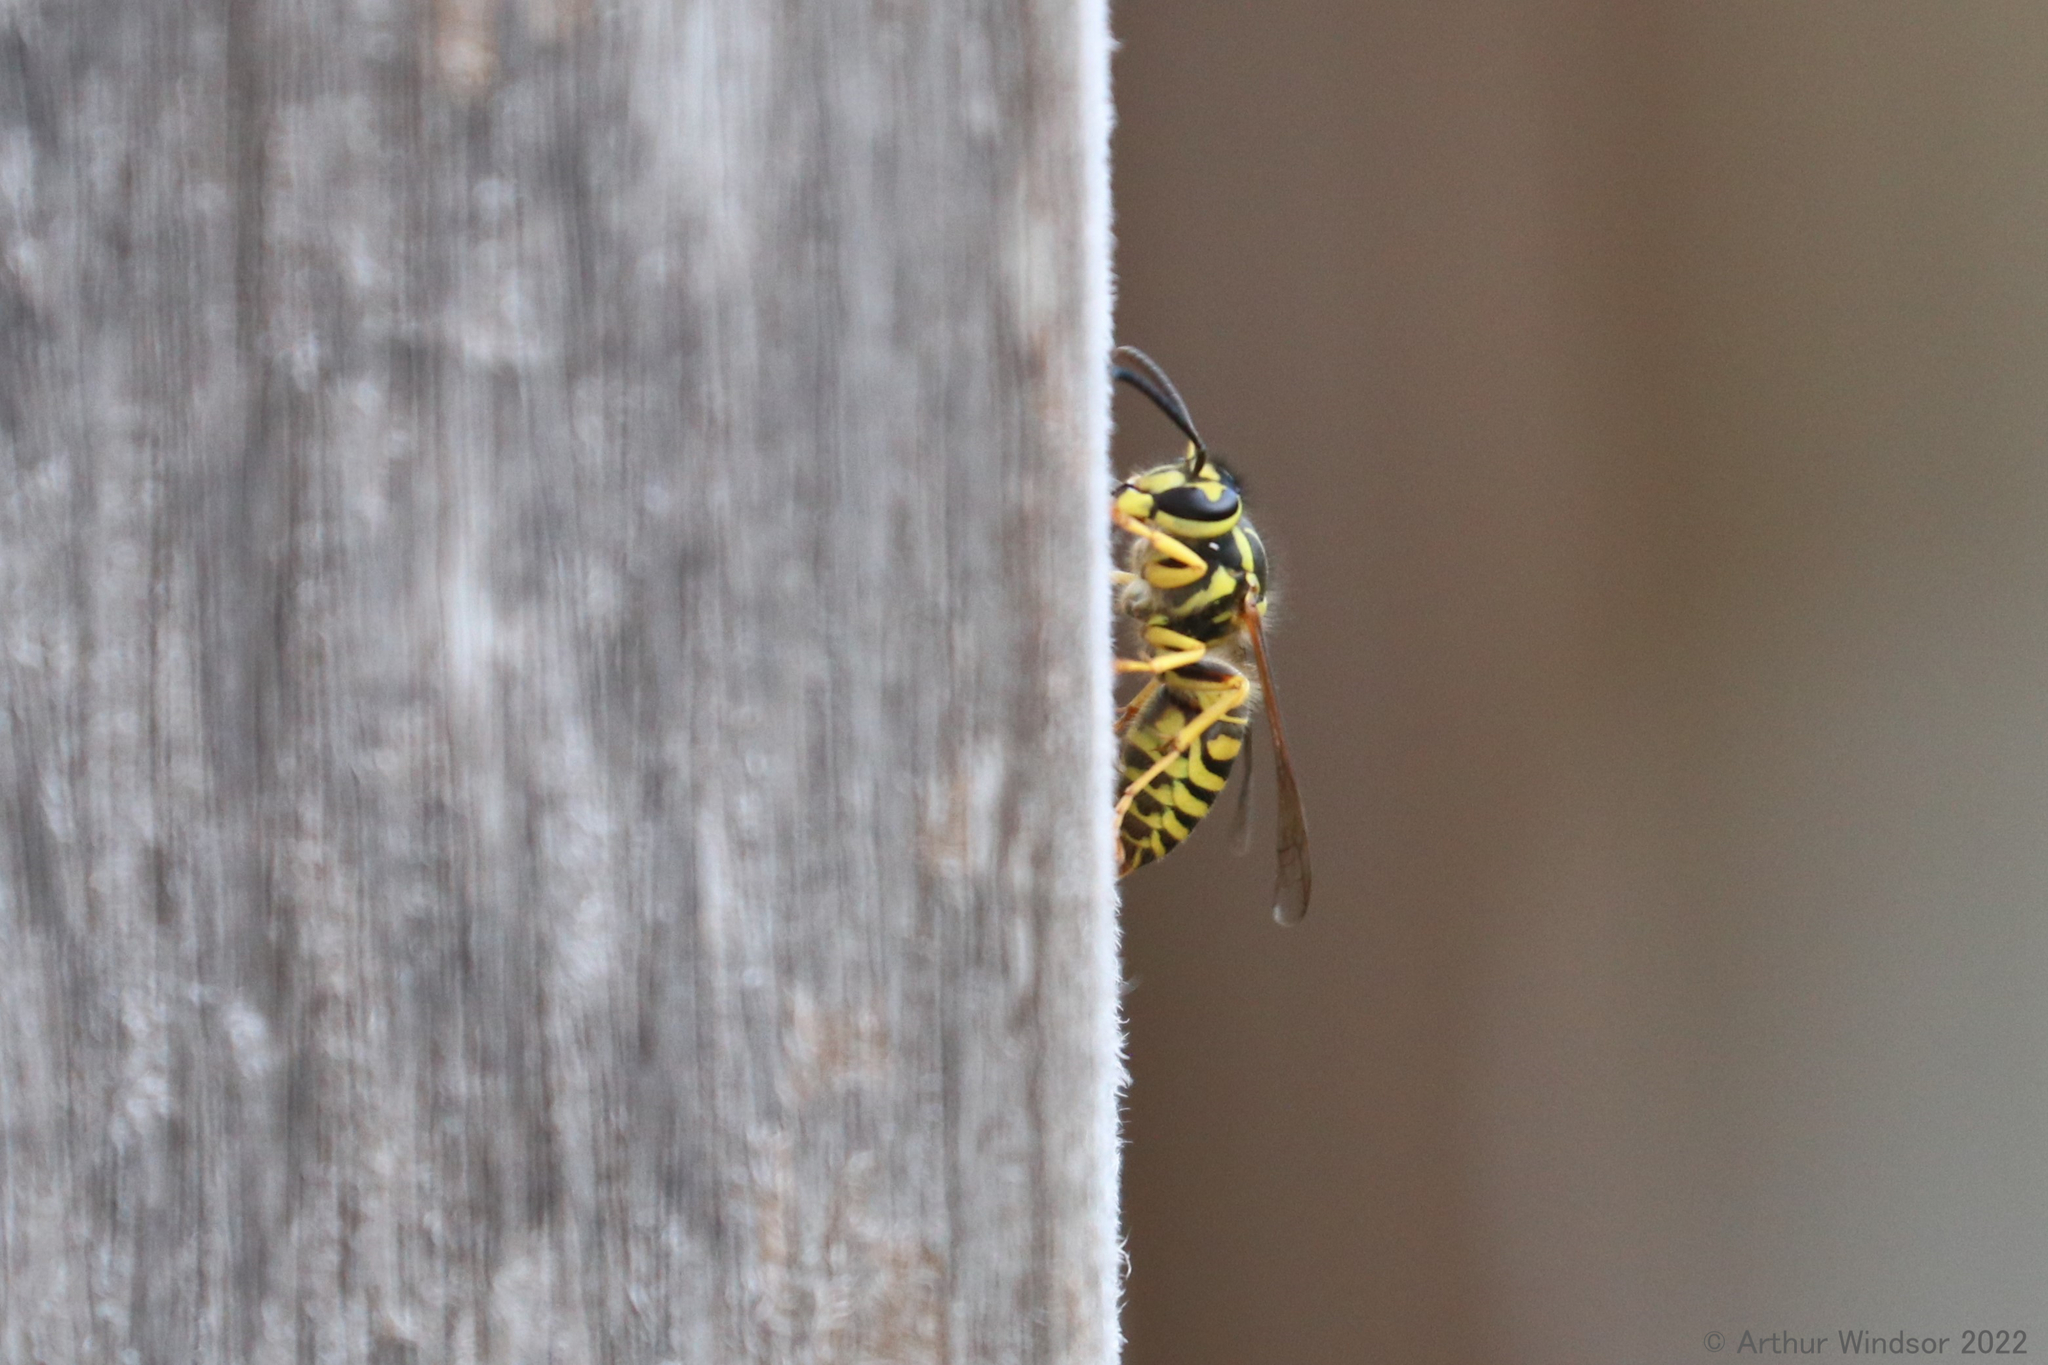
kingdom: Animalia
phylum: Arthropoda
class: Insecta
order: Hymenoptera
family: Vespidae
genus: Vespula
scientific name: Vespula squamosa
